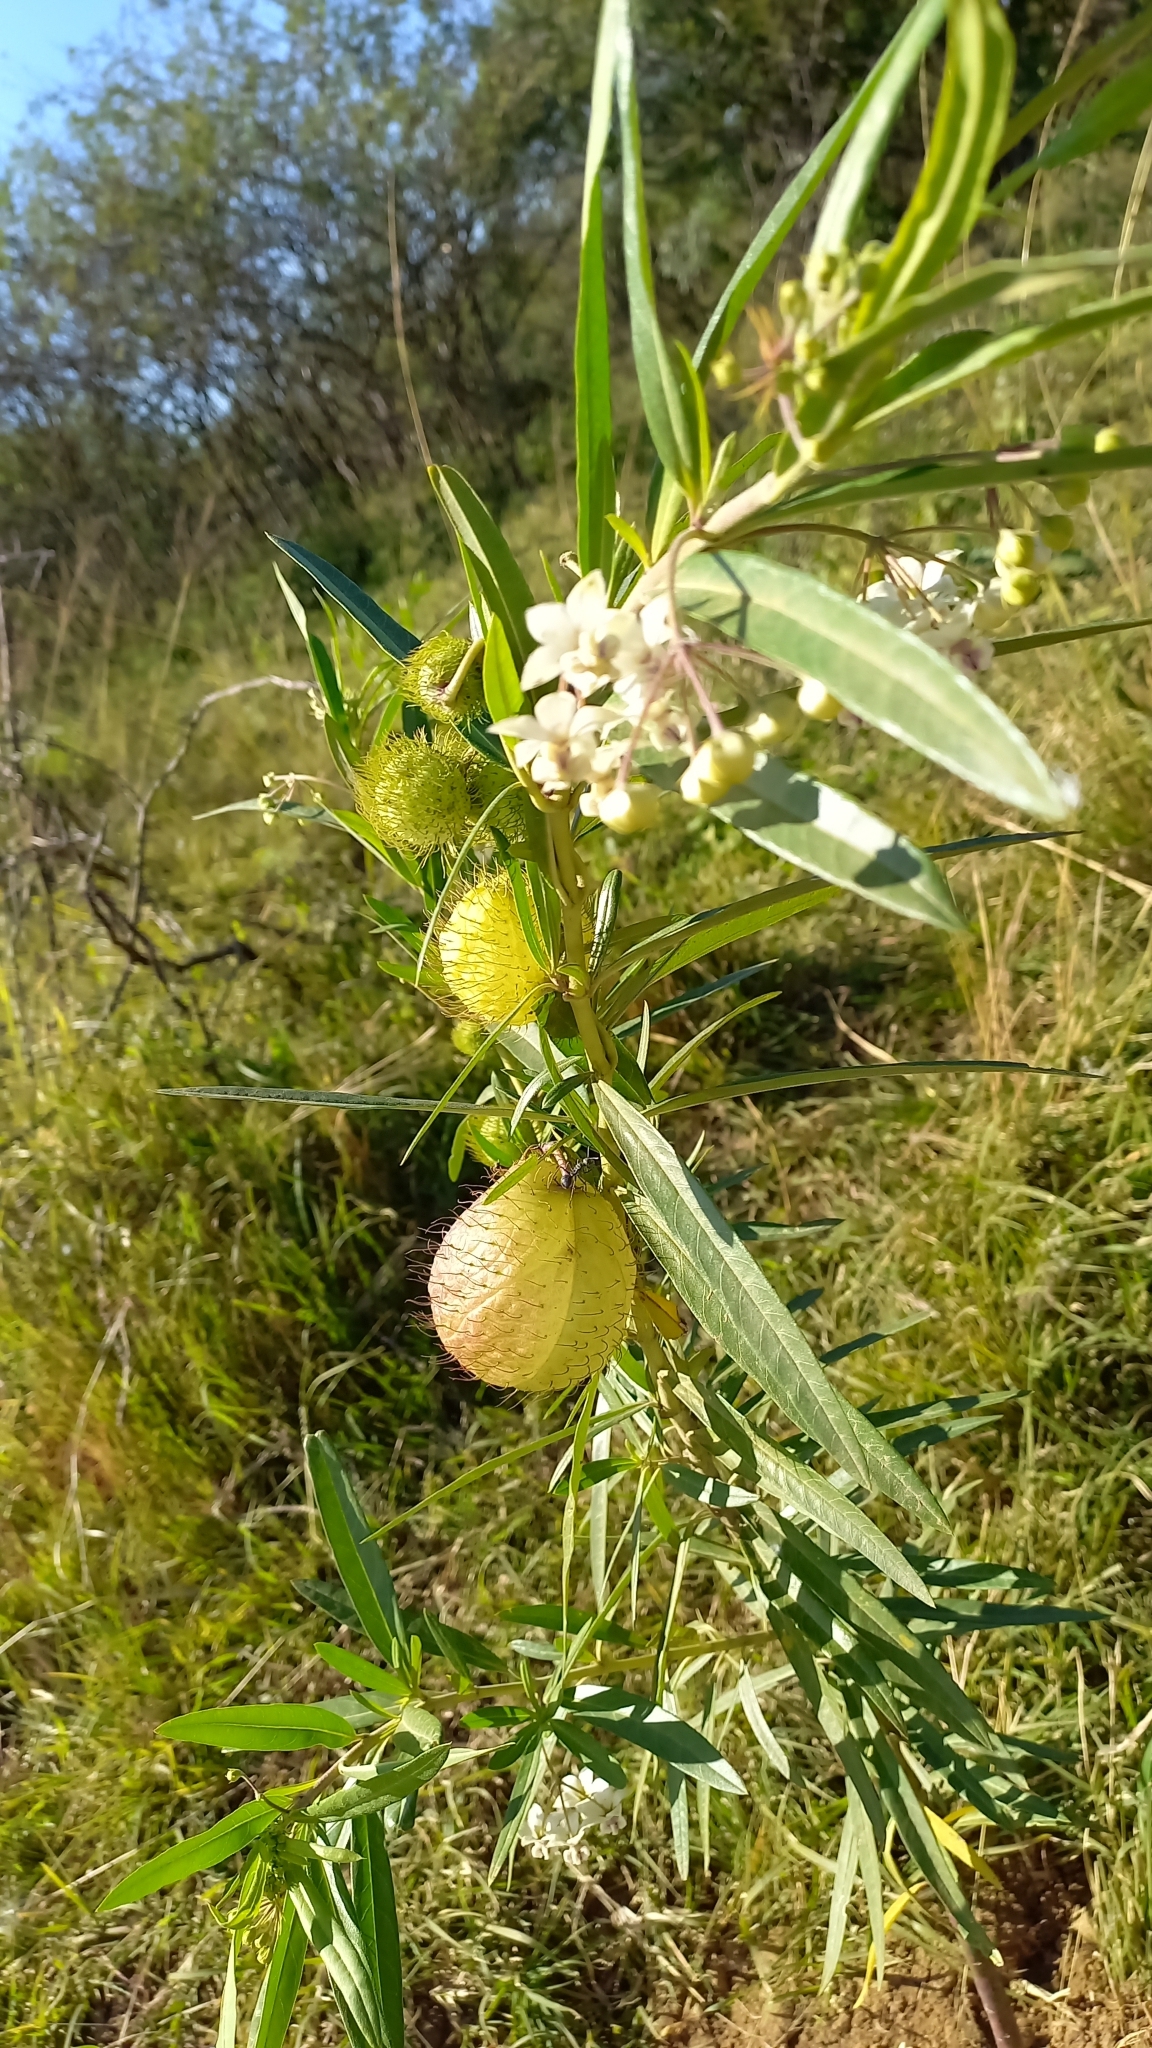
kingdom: Plantae
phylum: Tracheophyta
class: Magnoliopsida
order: Gentianales
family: Apocynaceae
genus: Gomphocarpus
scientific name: Gomphocarpus physocarpus
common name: Balloon cotton bush
